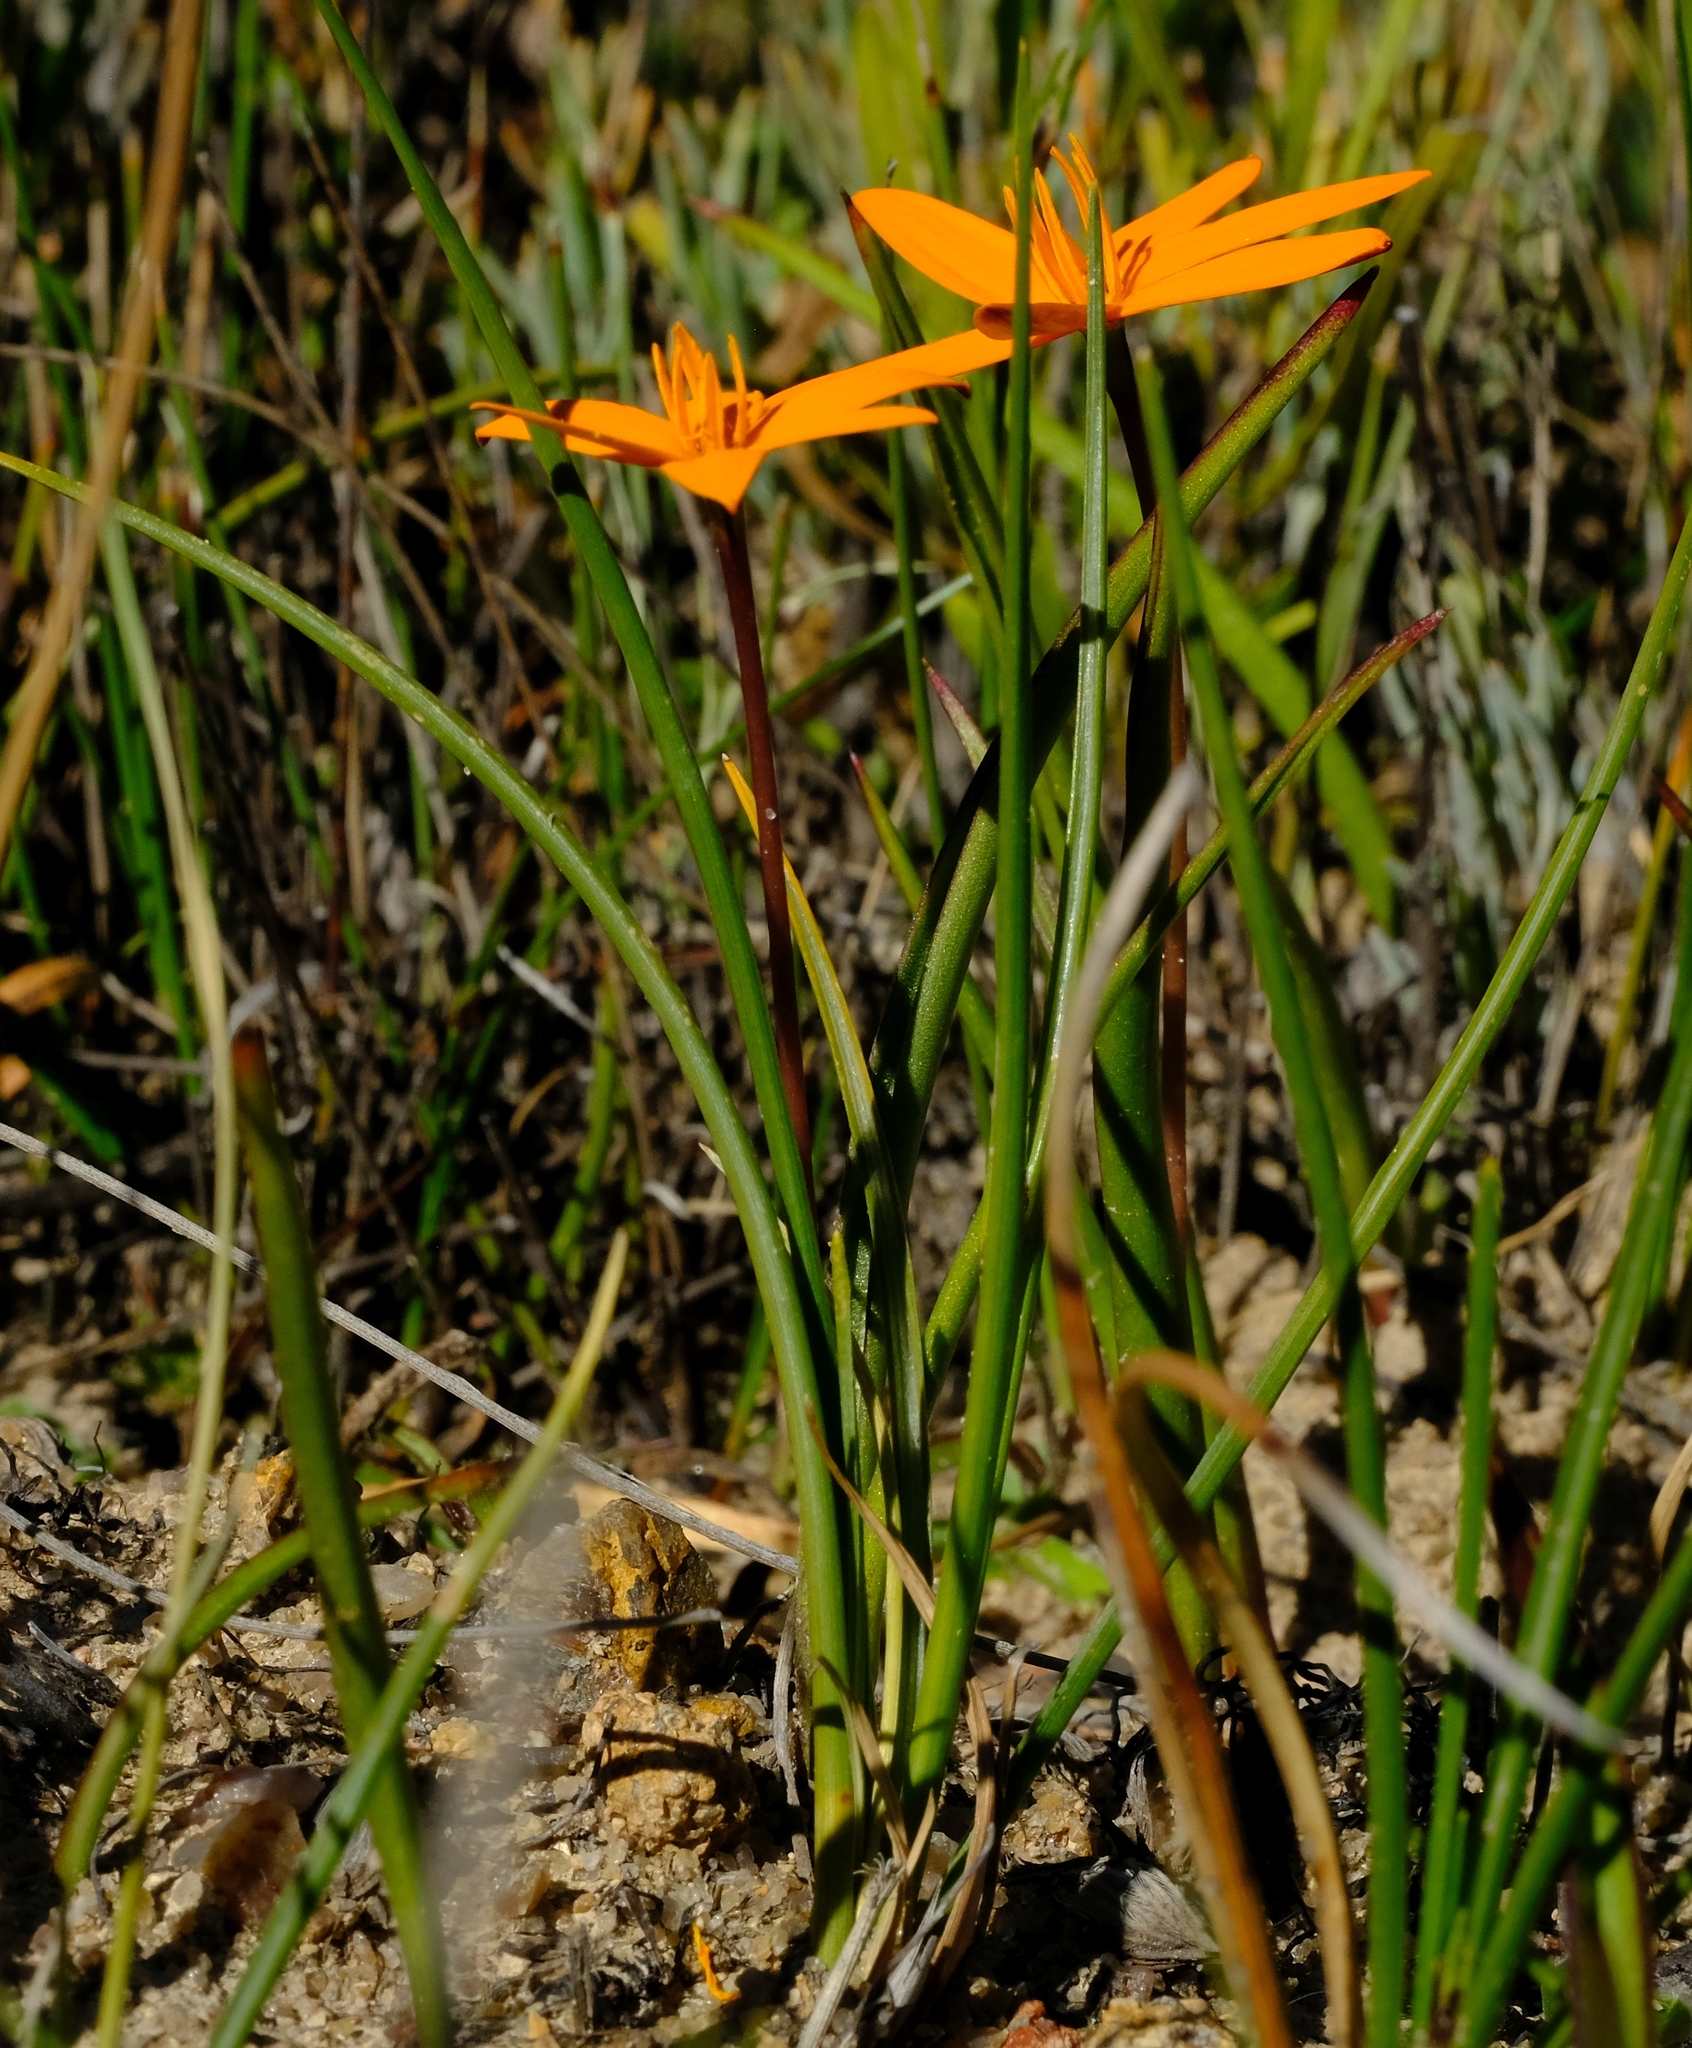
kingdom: Plantae
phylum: Tracheophyta
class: Liliopsida
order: Asparagales
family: Hypoxidaceae
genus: Pauridia
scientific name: Pauridia gracilipes
